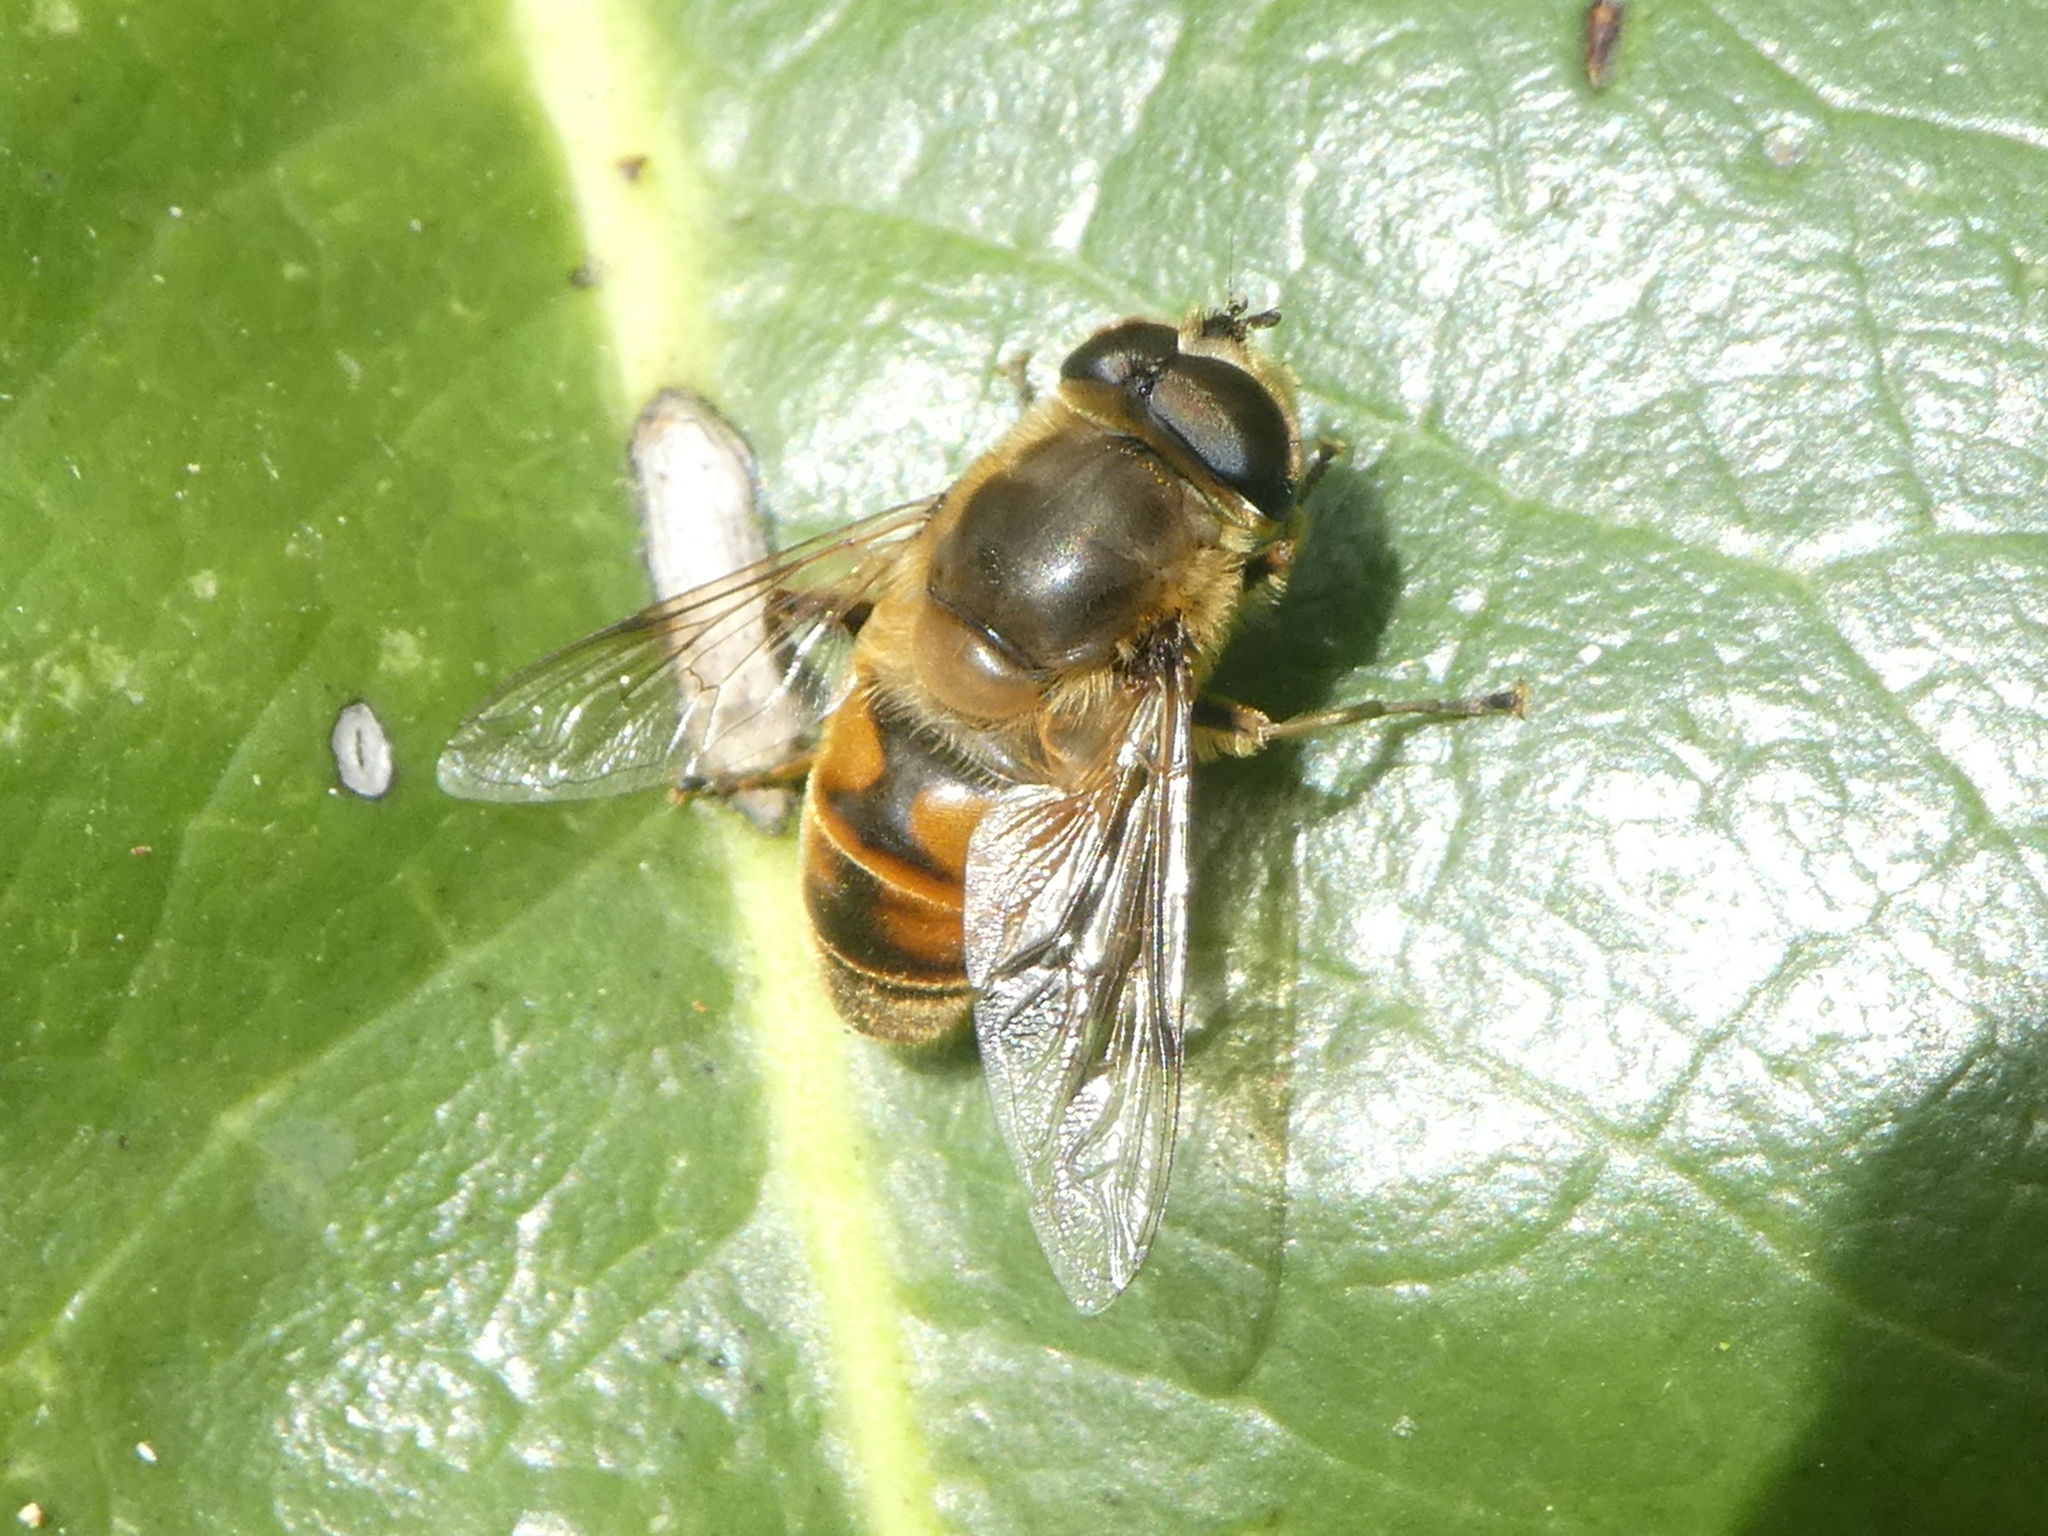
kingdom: Animalia
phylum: Arthropoda
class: Insecta
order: Diptera
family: Syrphidae
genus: Eristalis
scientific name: Eristalis tenax
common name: Drone fly
